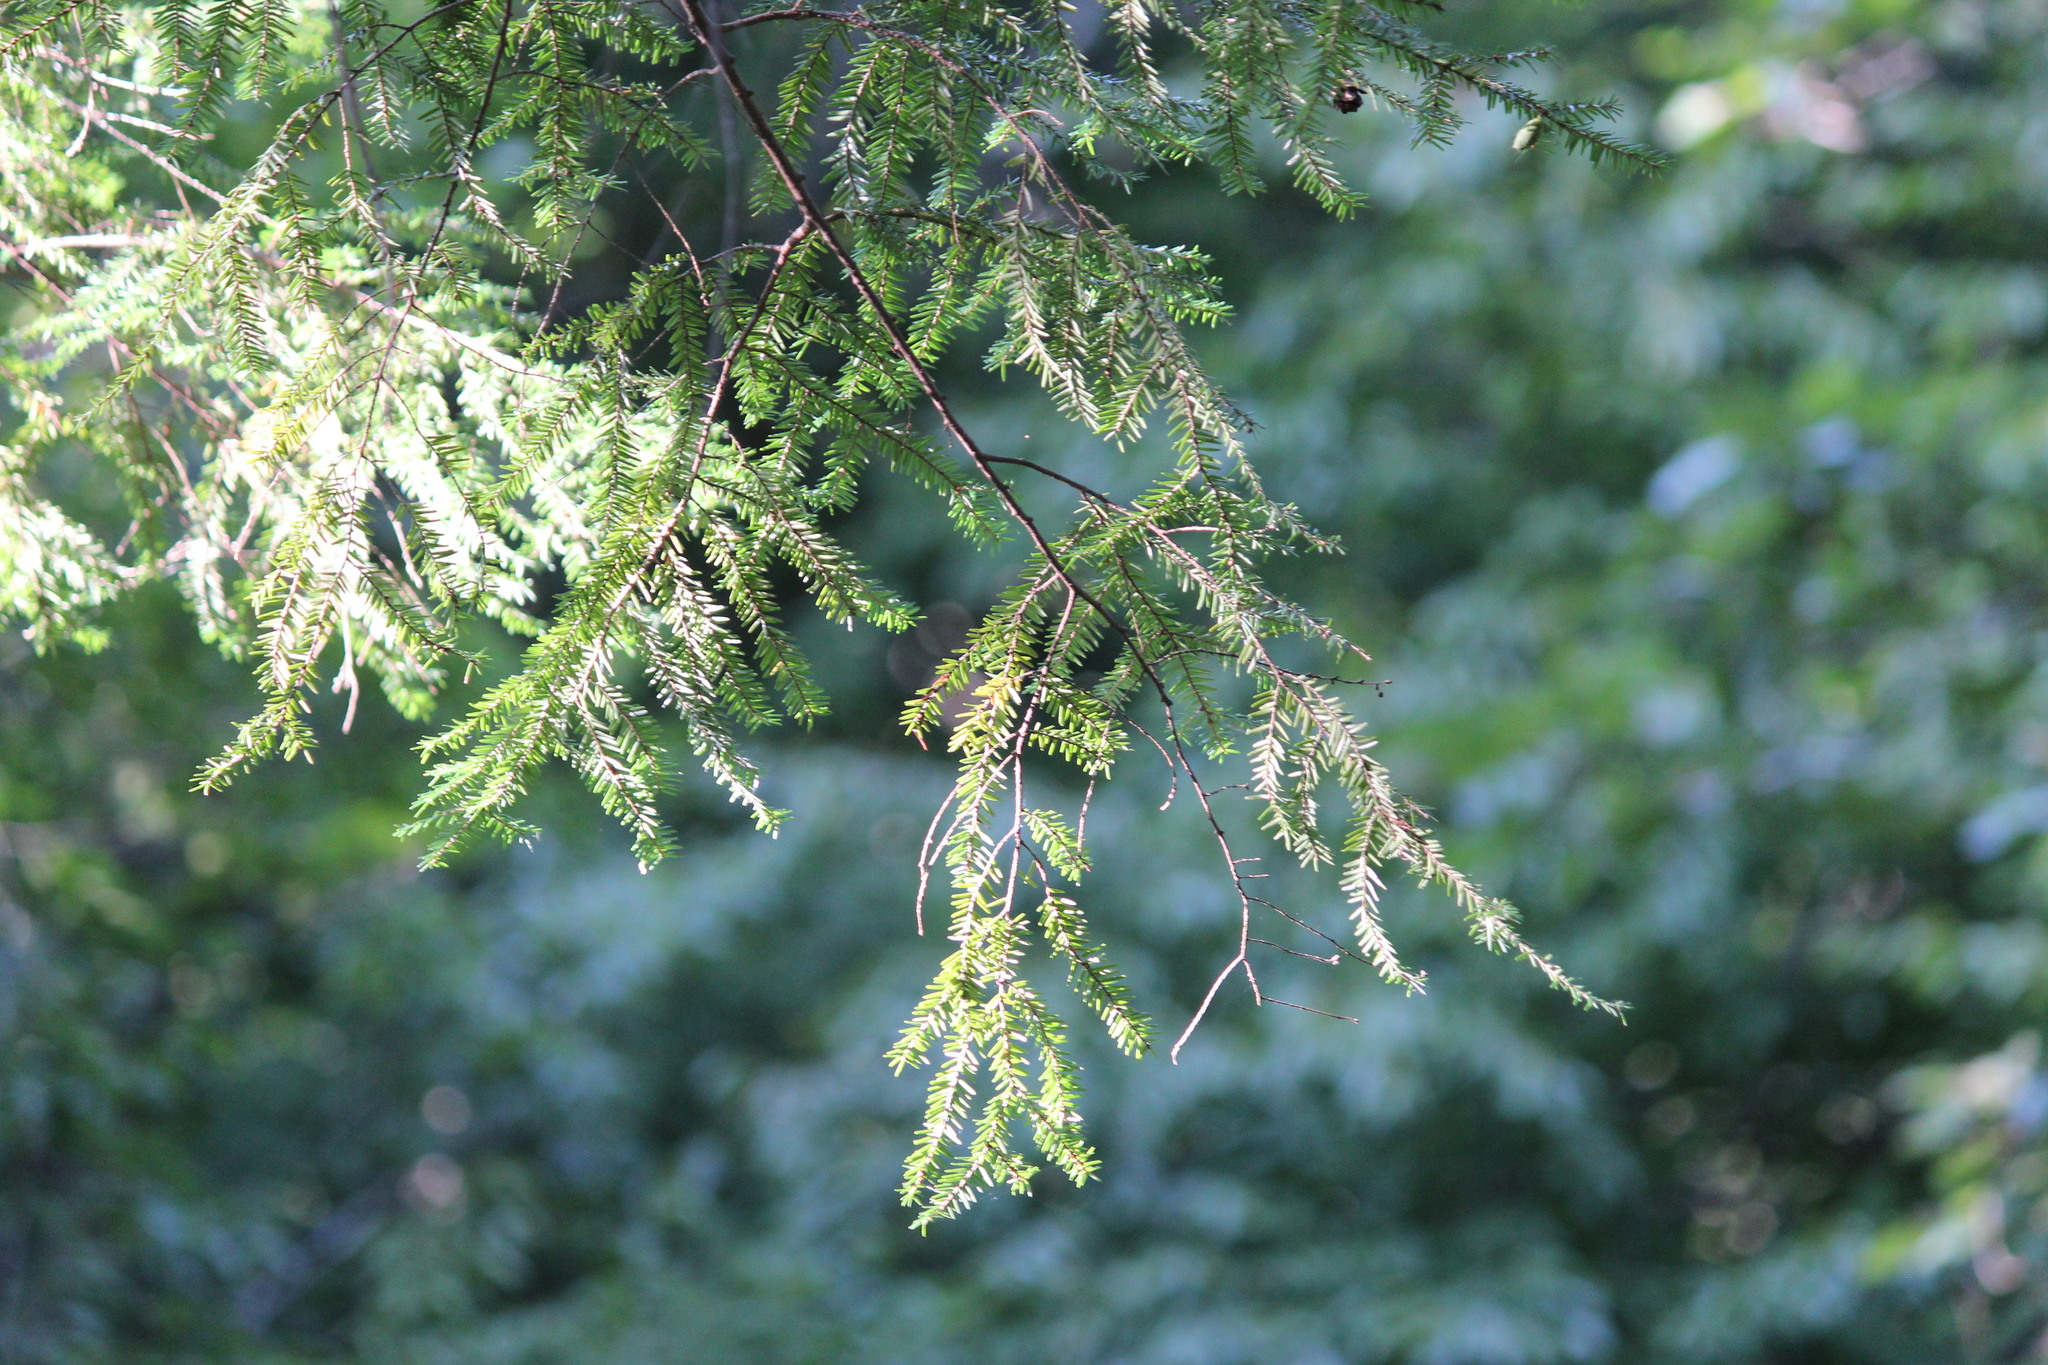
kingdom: Plantae
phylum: Tracheophyta
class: Pinopsida
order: Pinales
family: Pinaceae
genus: Tsuga
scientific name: Tsuga canadensis
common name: Eastern hemlock
